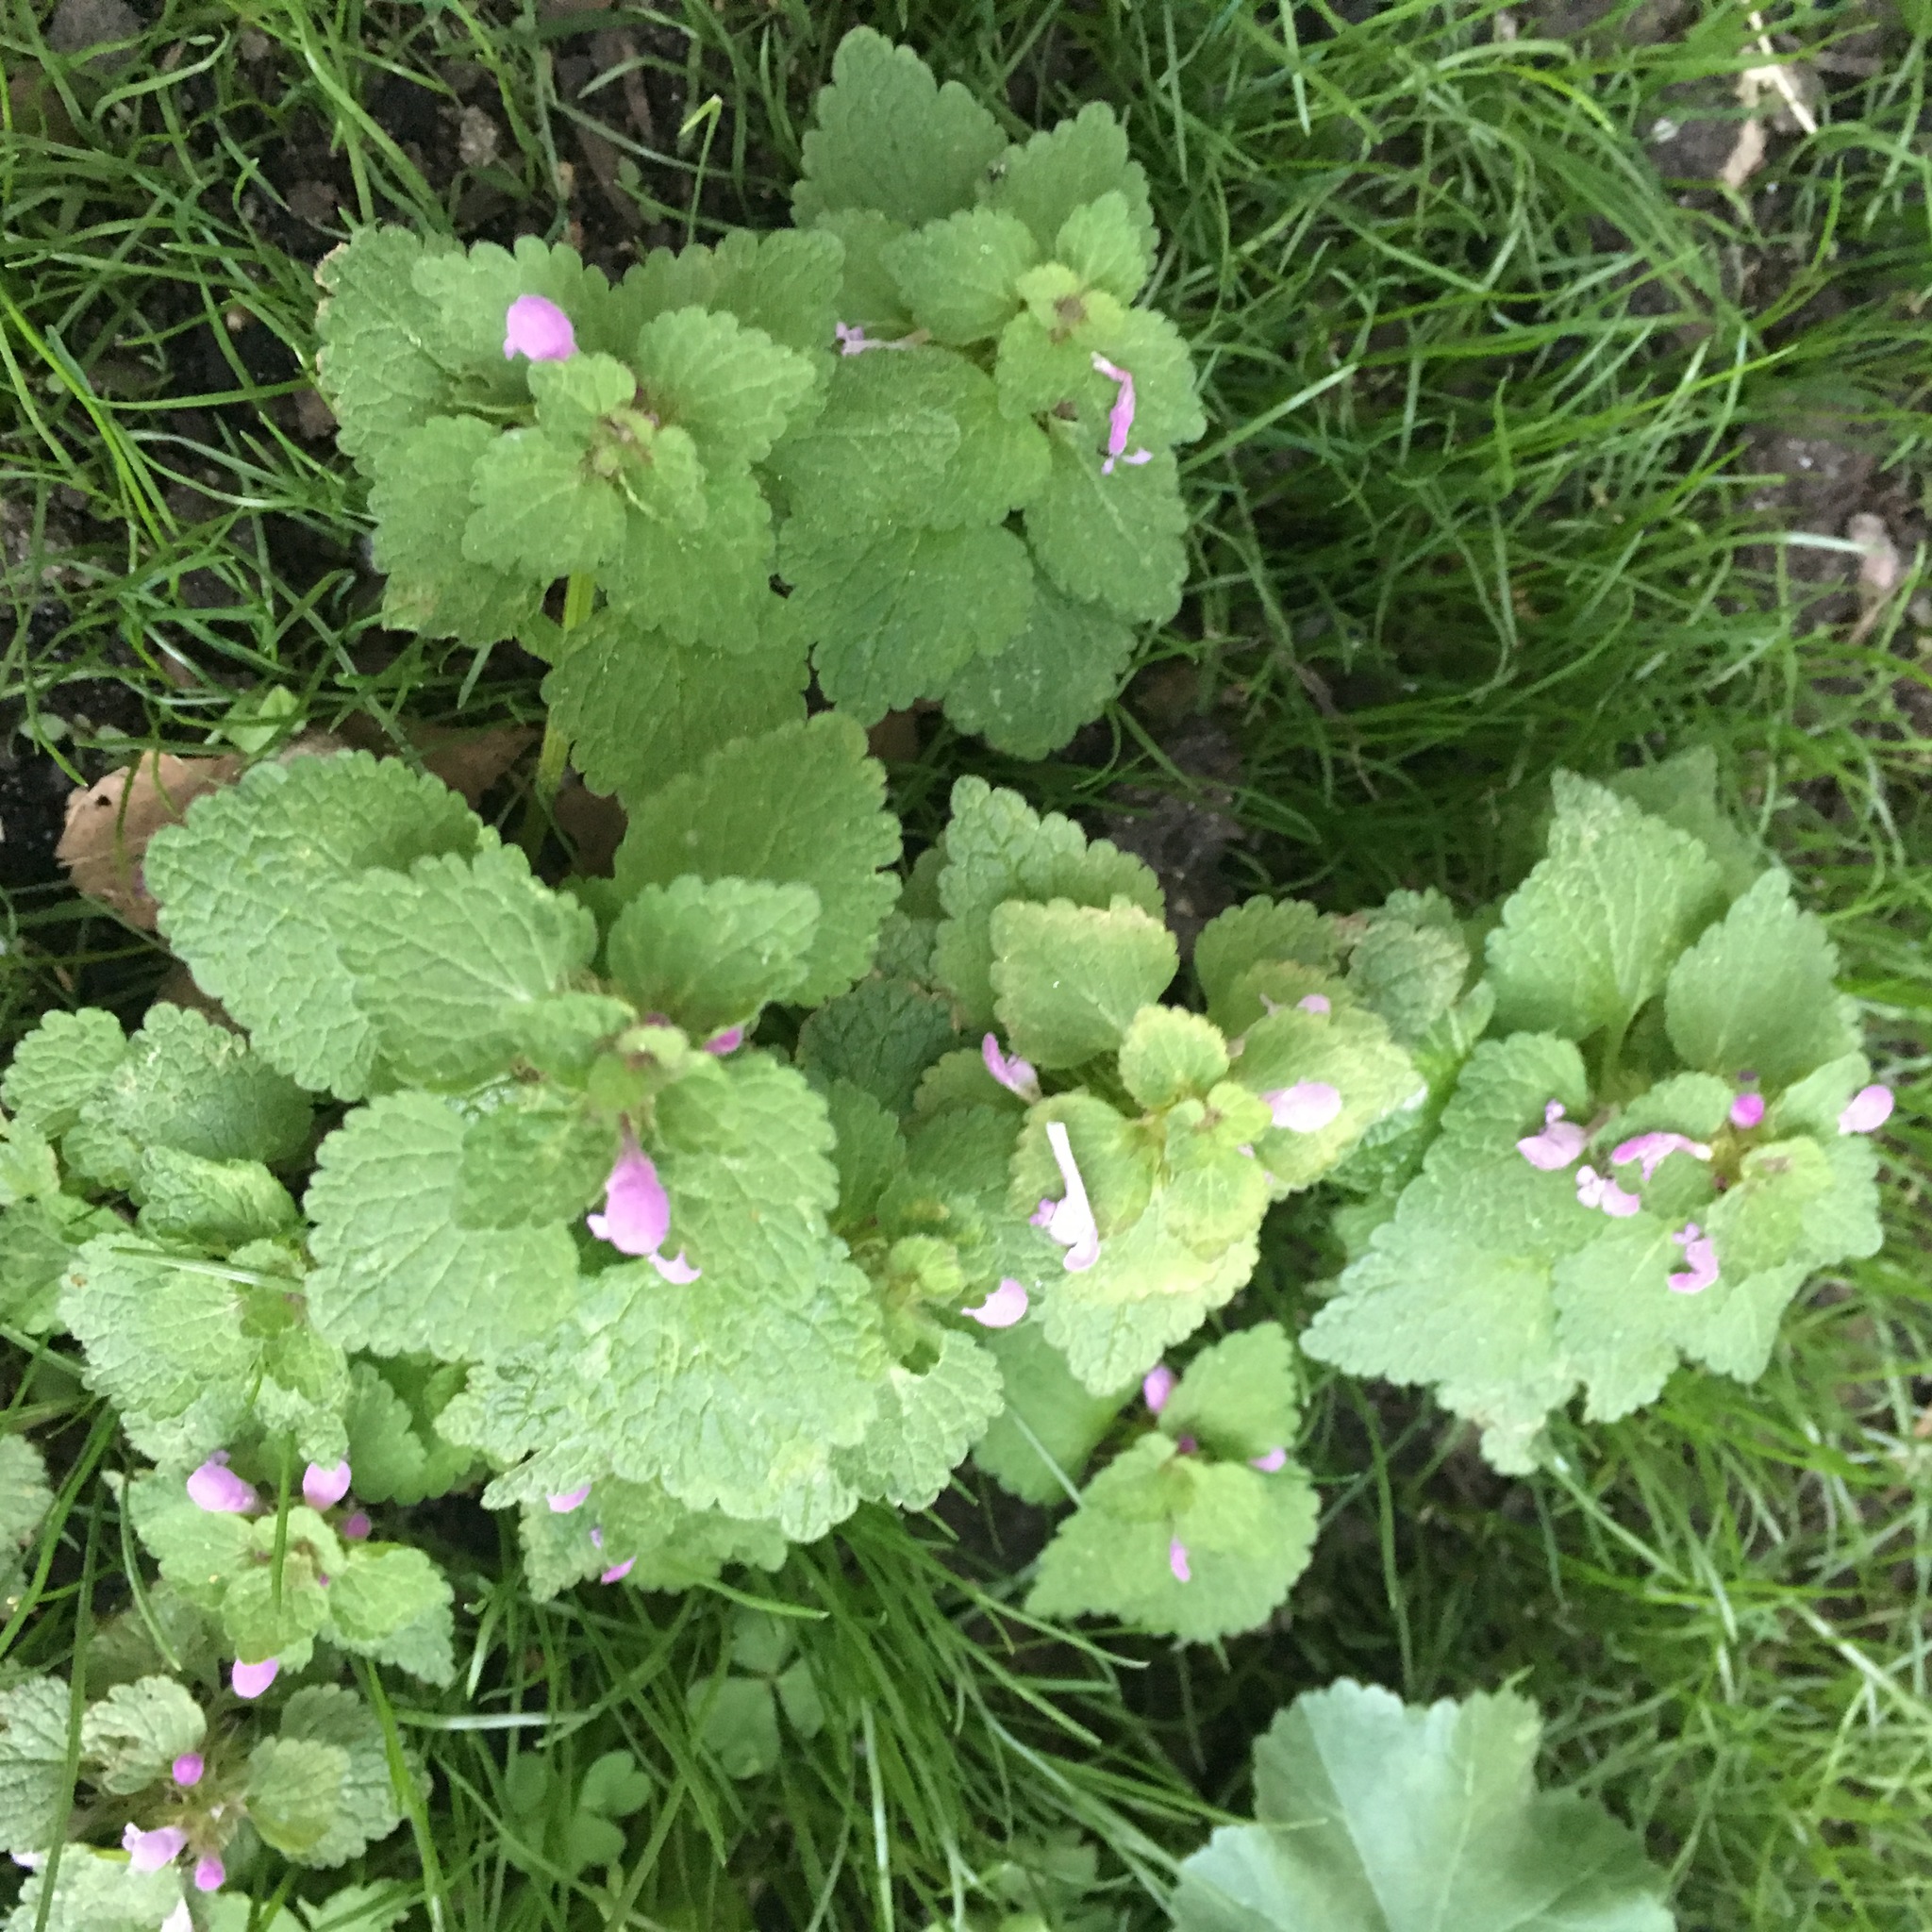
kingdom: Plantae
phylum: Tracheophyta
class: Magnoliopsida
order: Lamiales
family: Lamiaceae
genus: Lamium
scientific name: Lamium purpureum
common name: Red dead-nettle
